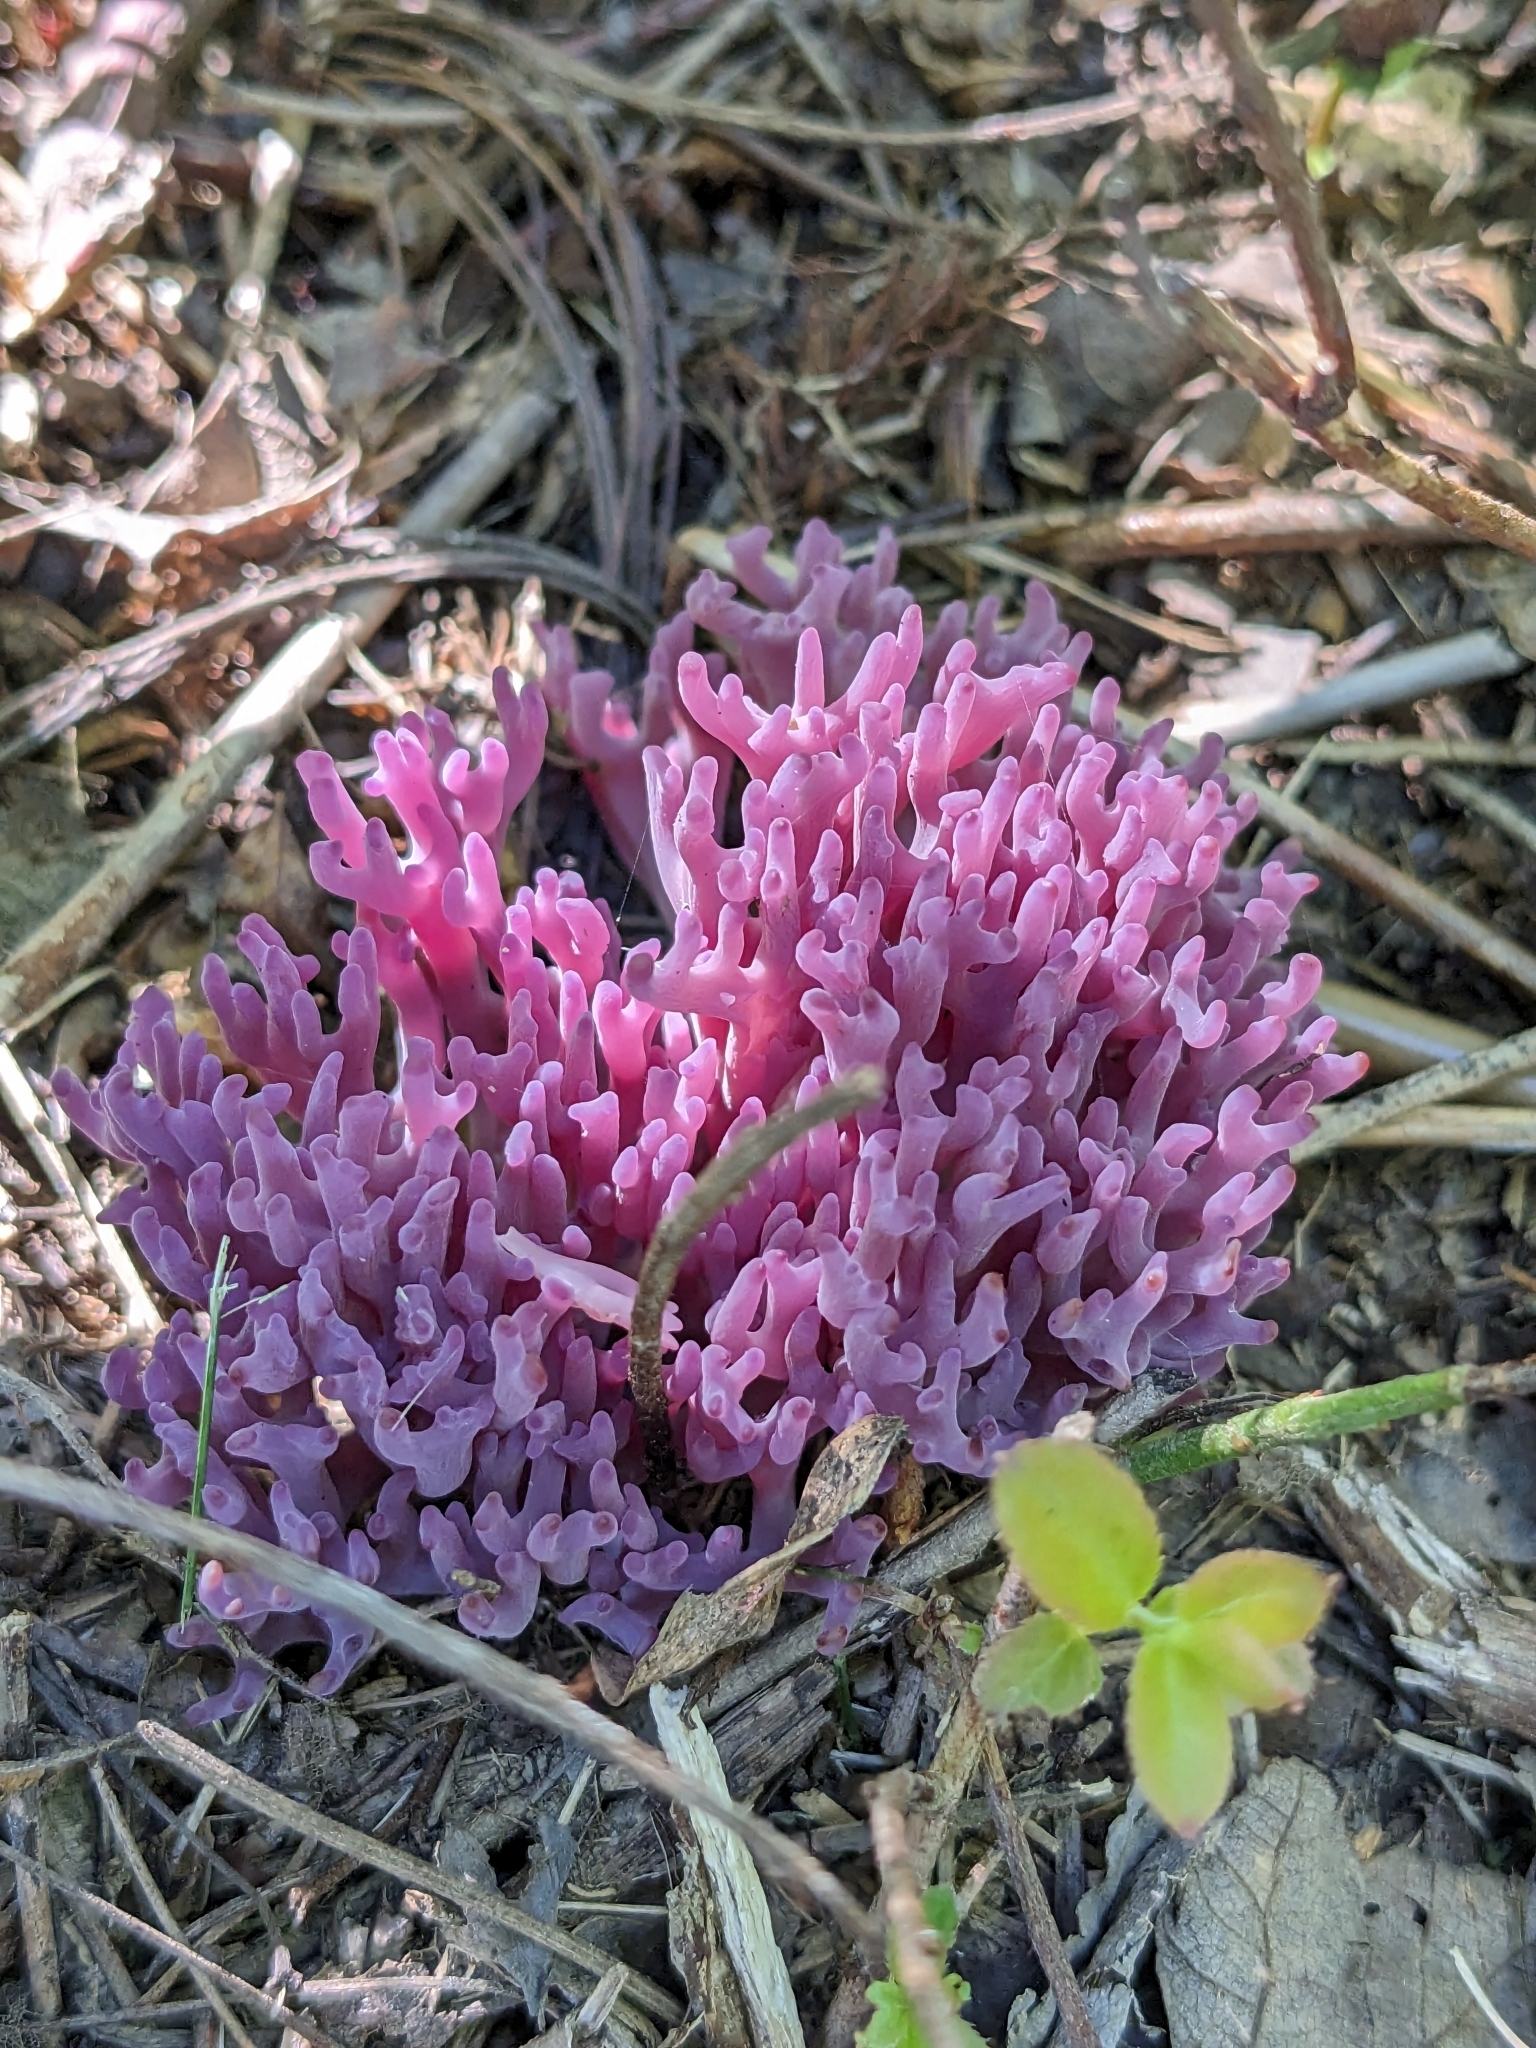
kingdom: Fungi
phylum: Basidiomycota
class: Agaricomycetes
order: Agaricales
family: Clavariaceae
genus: Clavaria
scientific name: Clavaria zollingeri
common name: Violet coral
